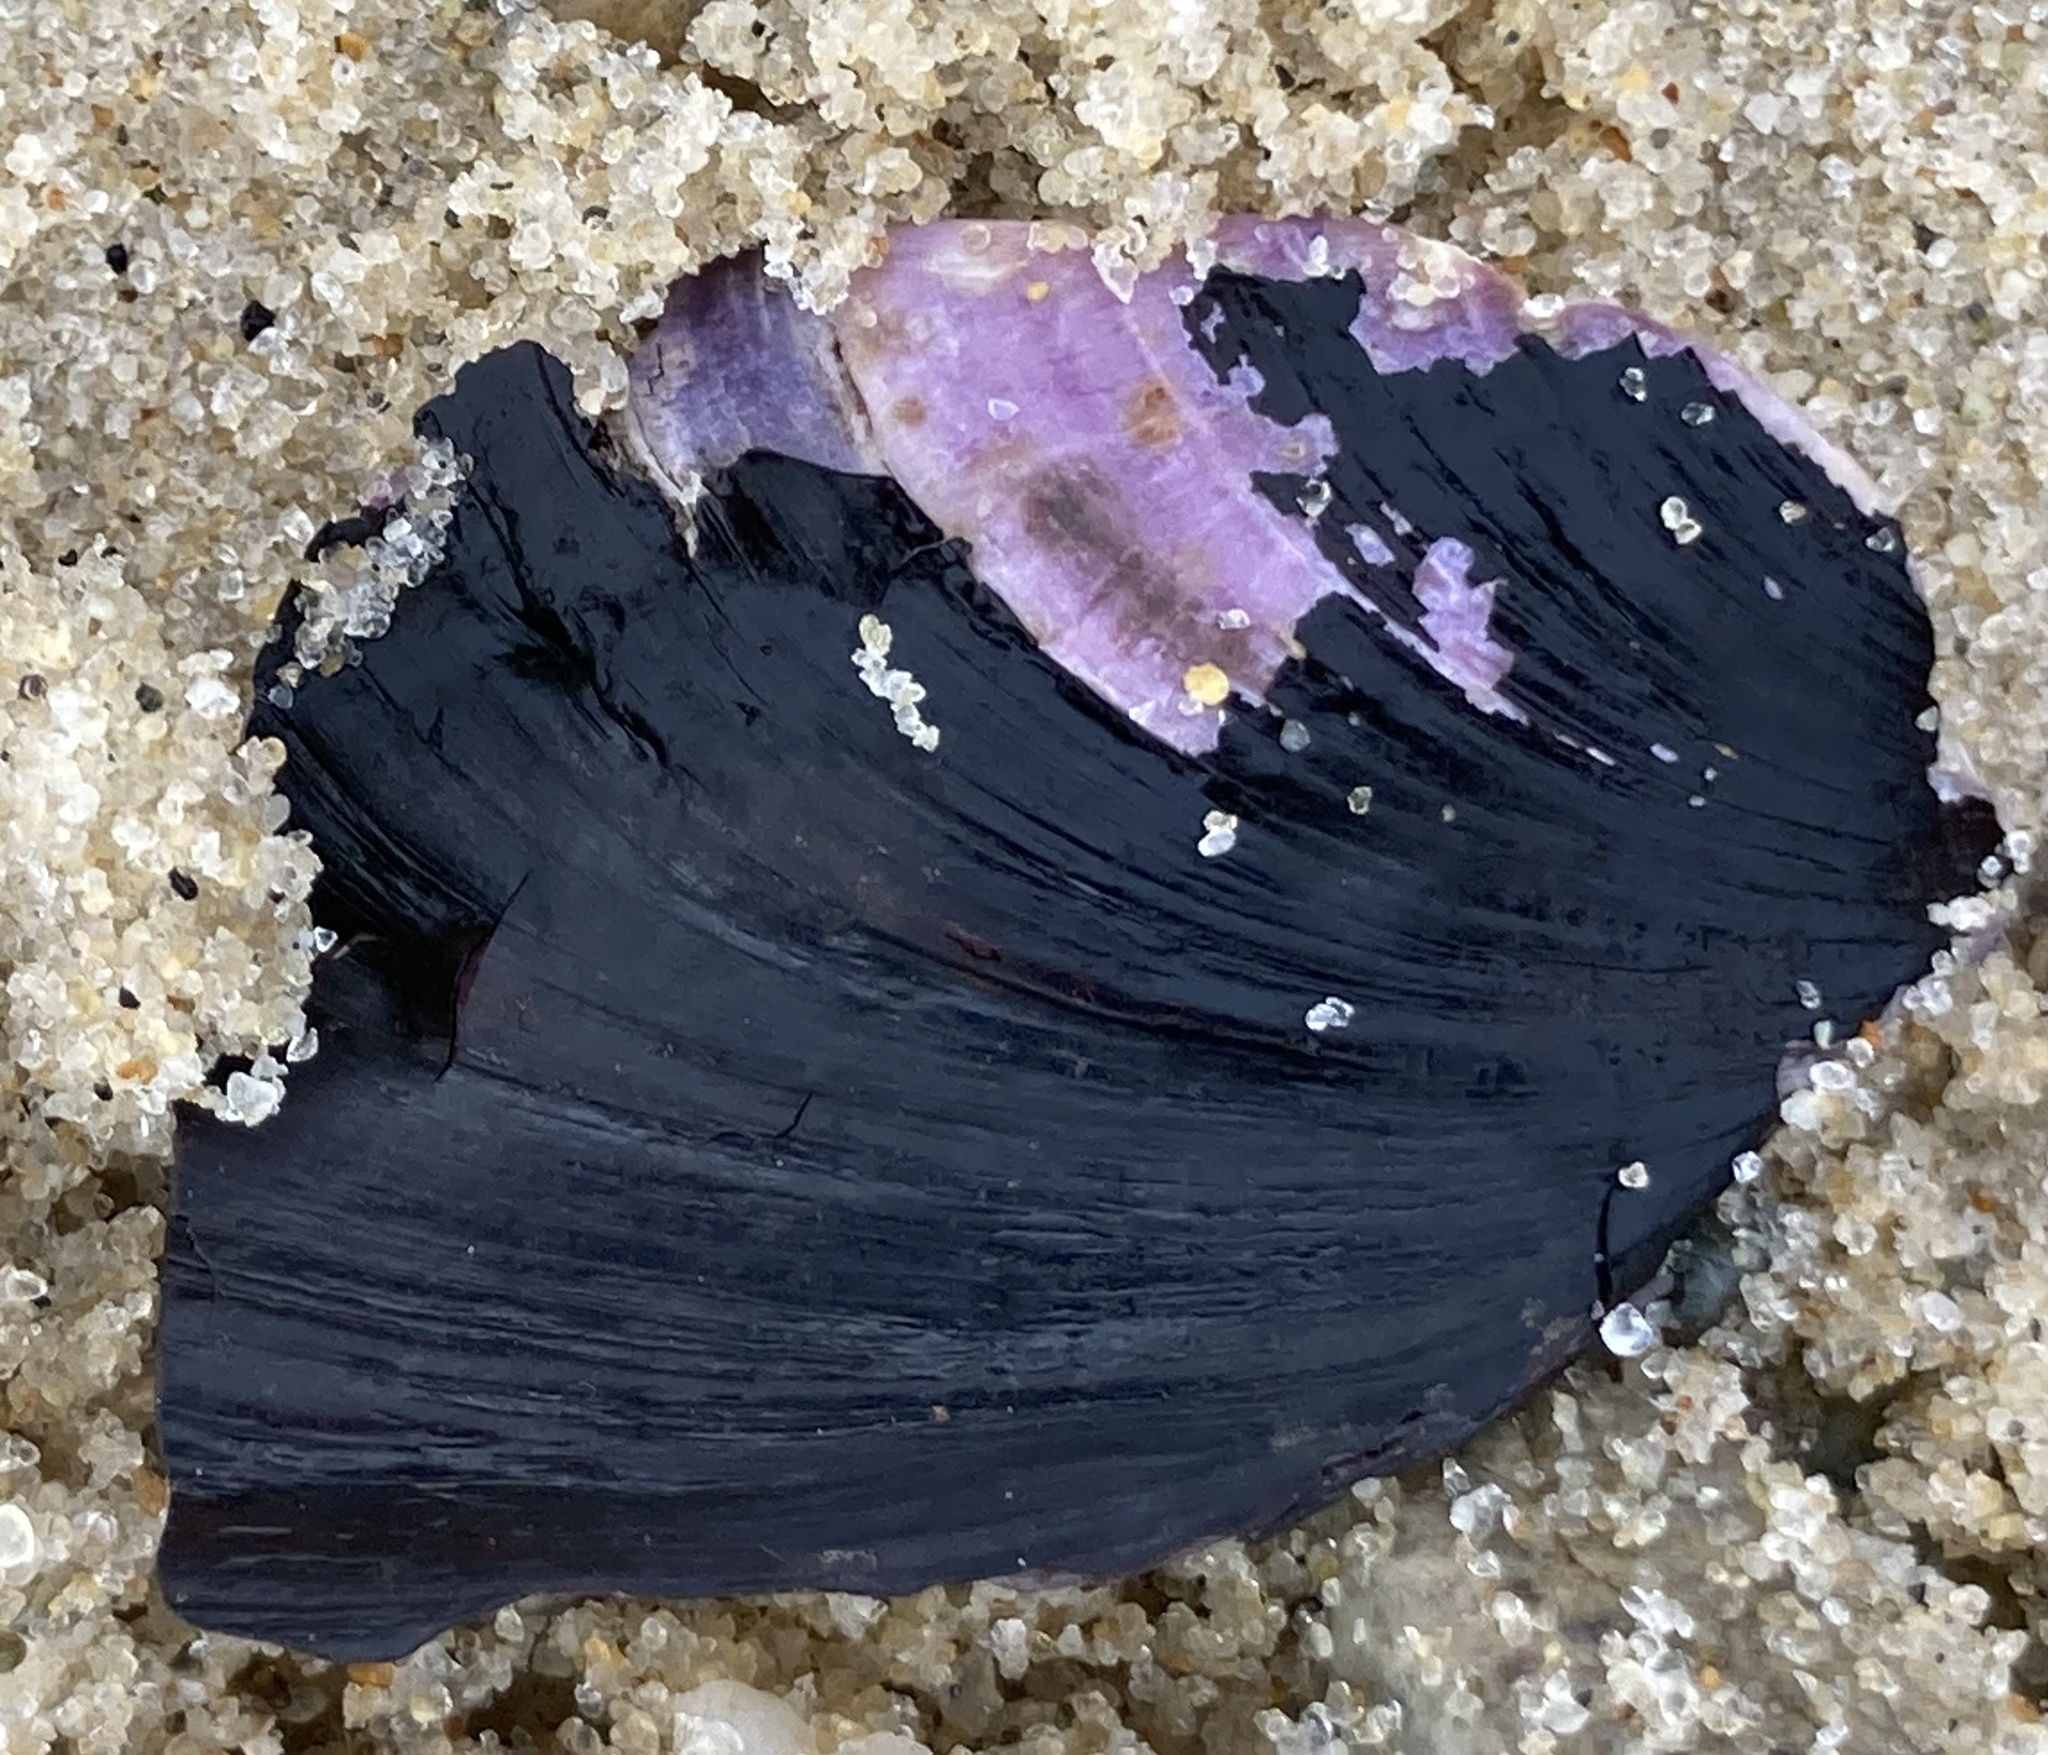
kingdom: Animalia
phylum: Mollusca
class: Bivalvia
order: Mytilida
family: Mytilidae
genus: Modiolus
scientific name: Modiolus modiolus
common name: Horse-mussel
